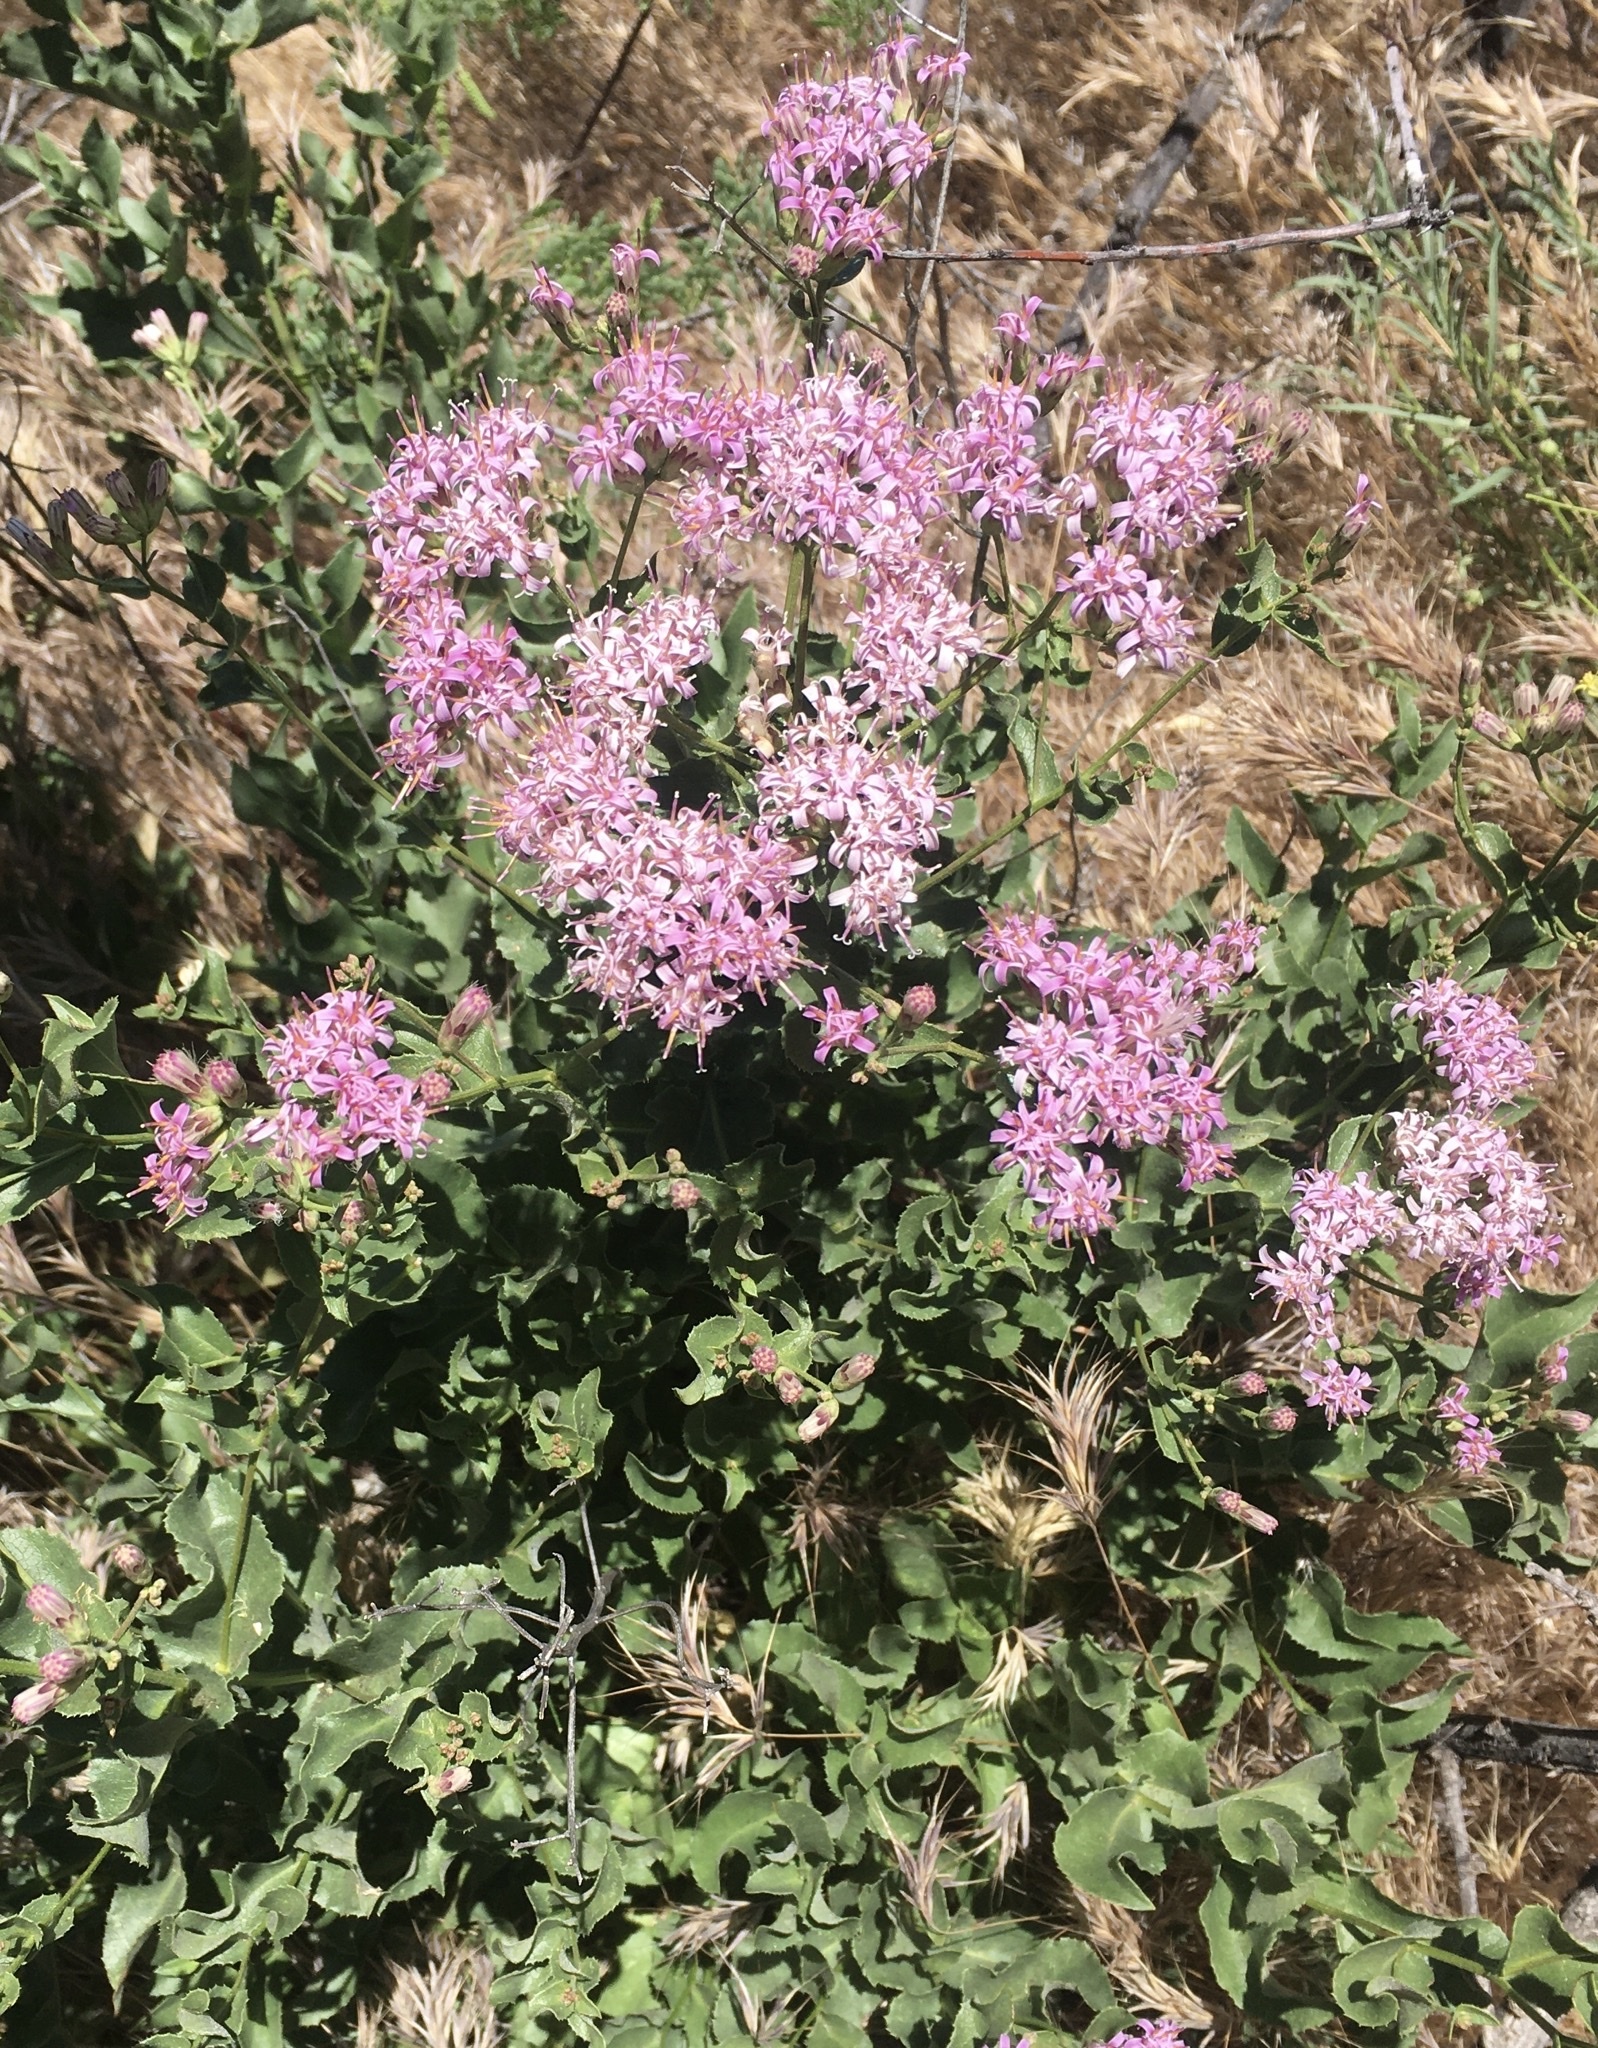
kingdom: Plantae
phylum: Tracheophyta
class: Magnoliopsida
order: Asterales
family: Asteraceae
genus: Acourtia
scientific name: Acourtia wrightii
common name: Brownfoot
